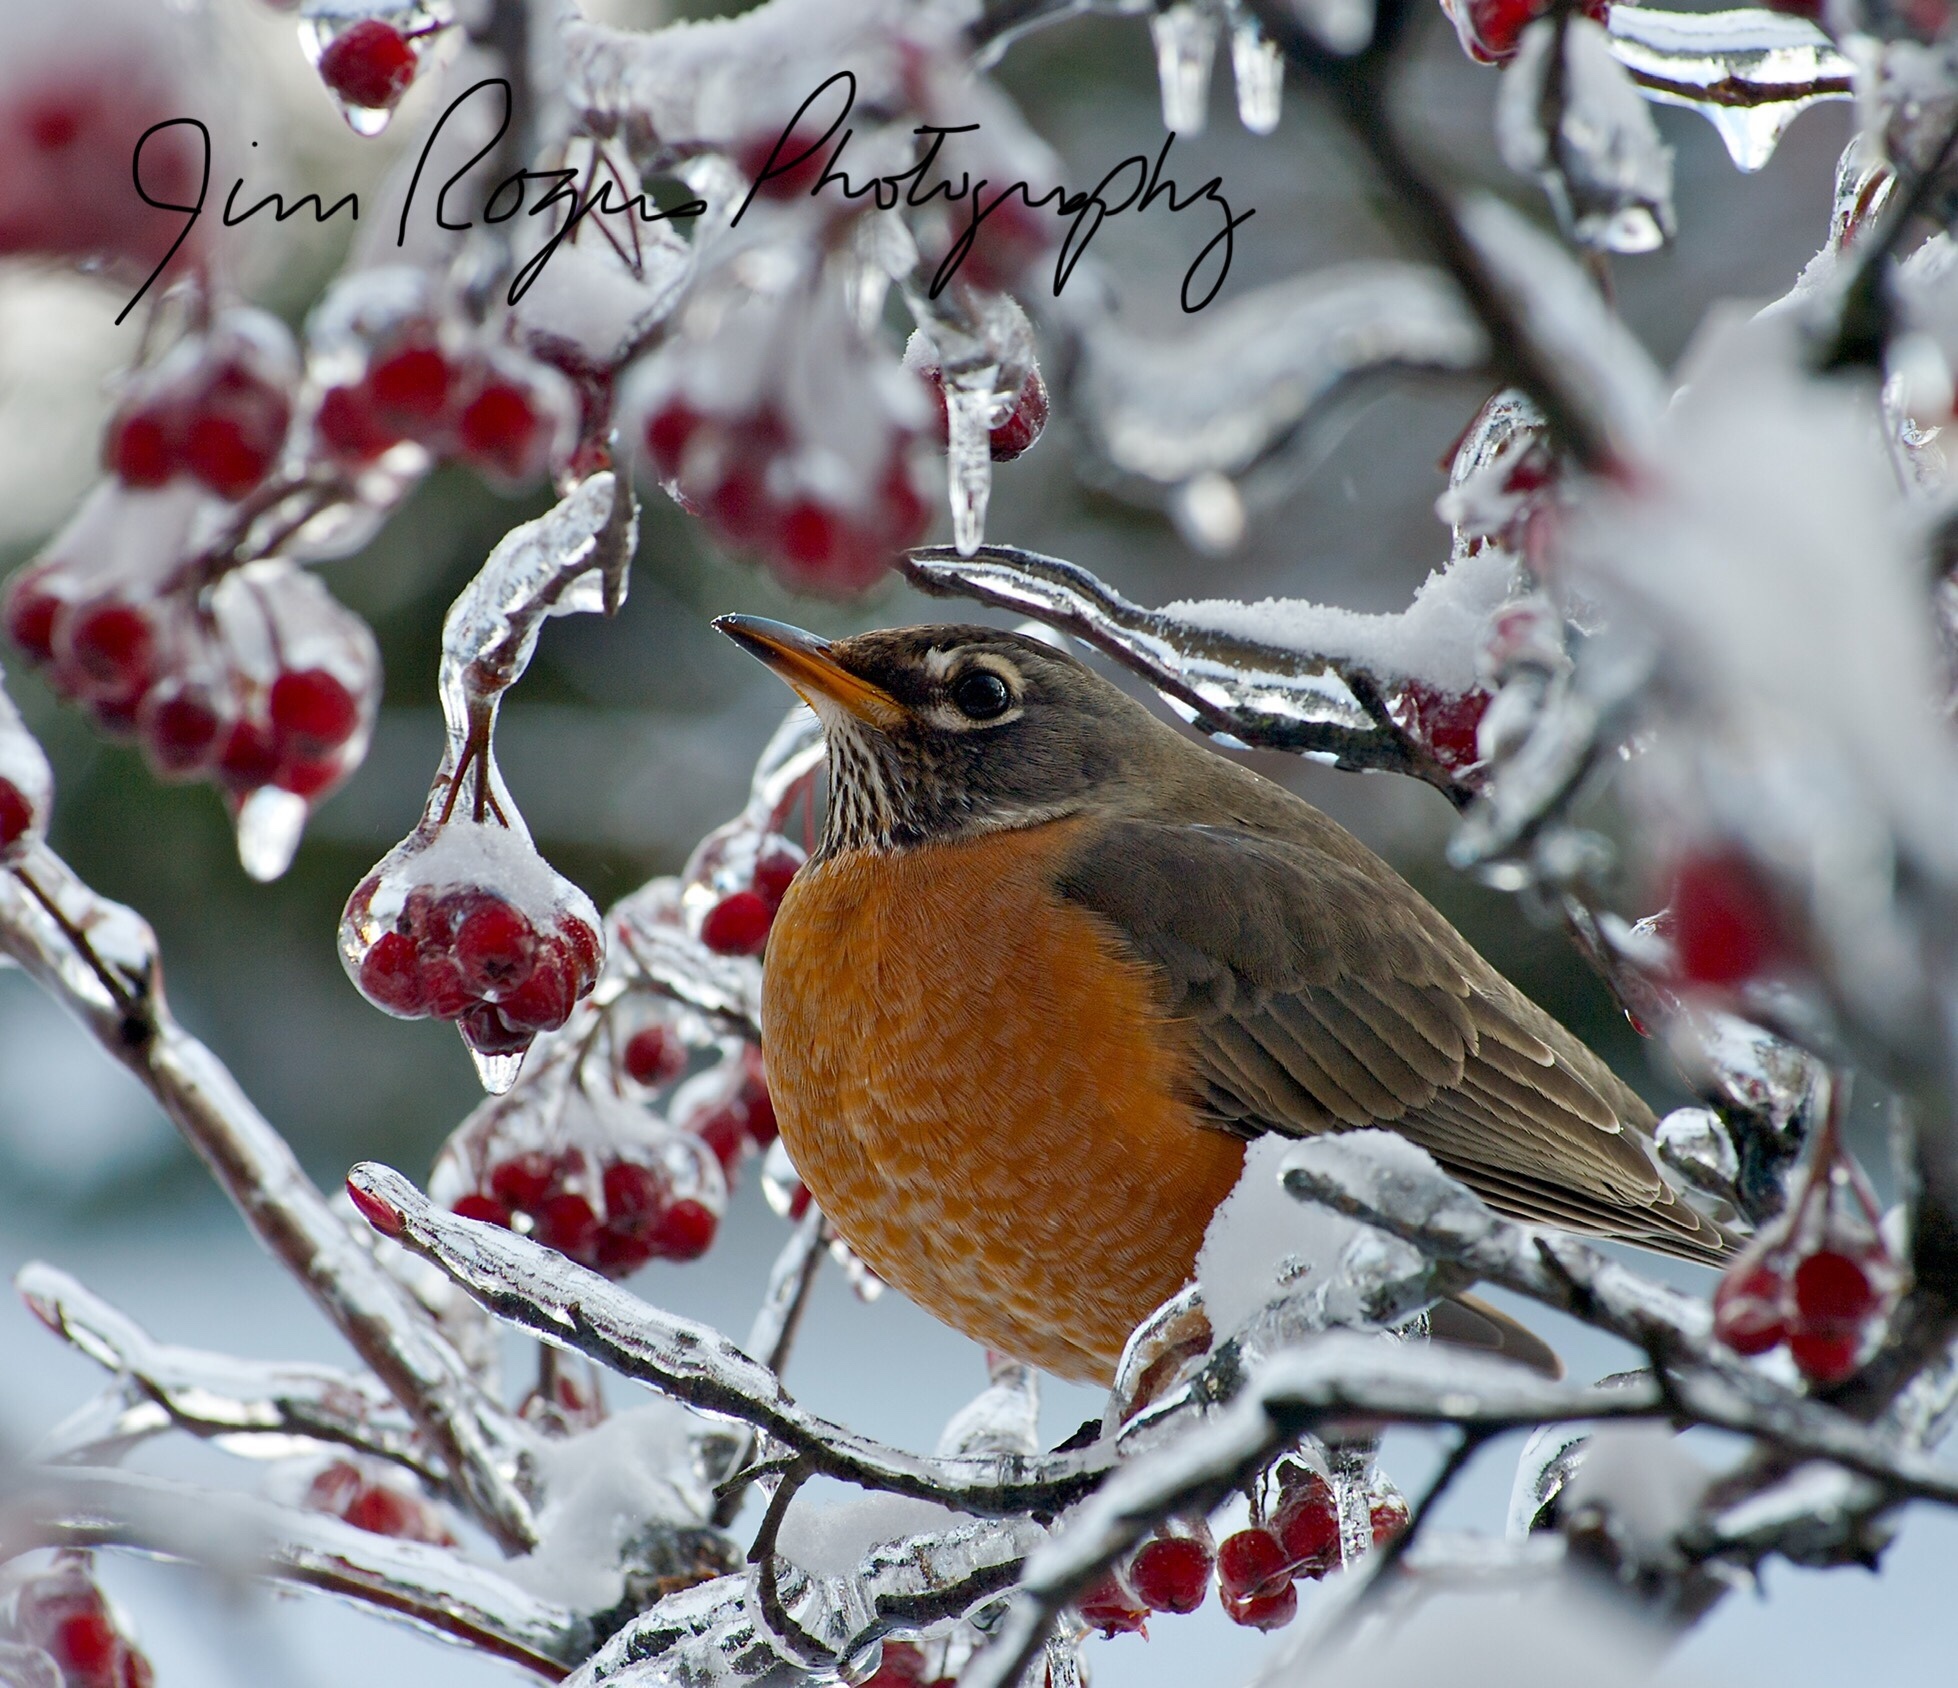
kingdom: Animalia
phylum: Chordata
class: Aves
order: Passeriformes
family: Turdidae
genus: Turdus
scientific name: Turdus migratorius
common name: American robin
